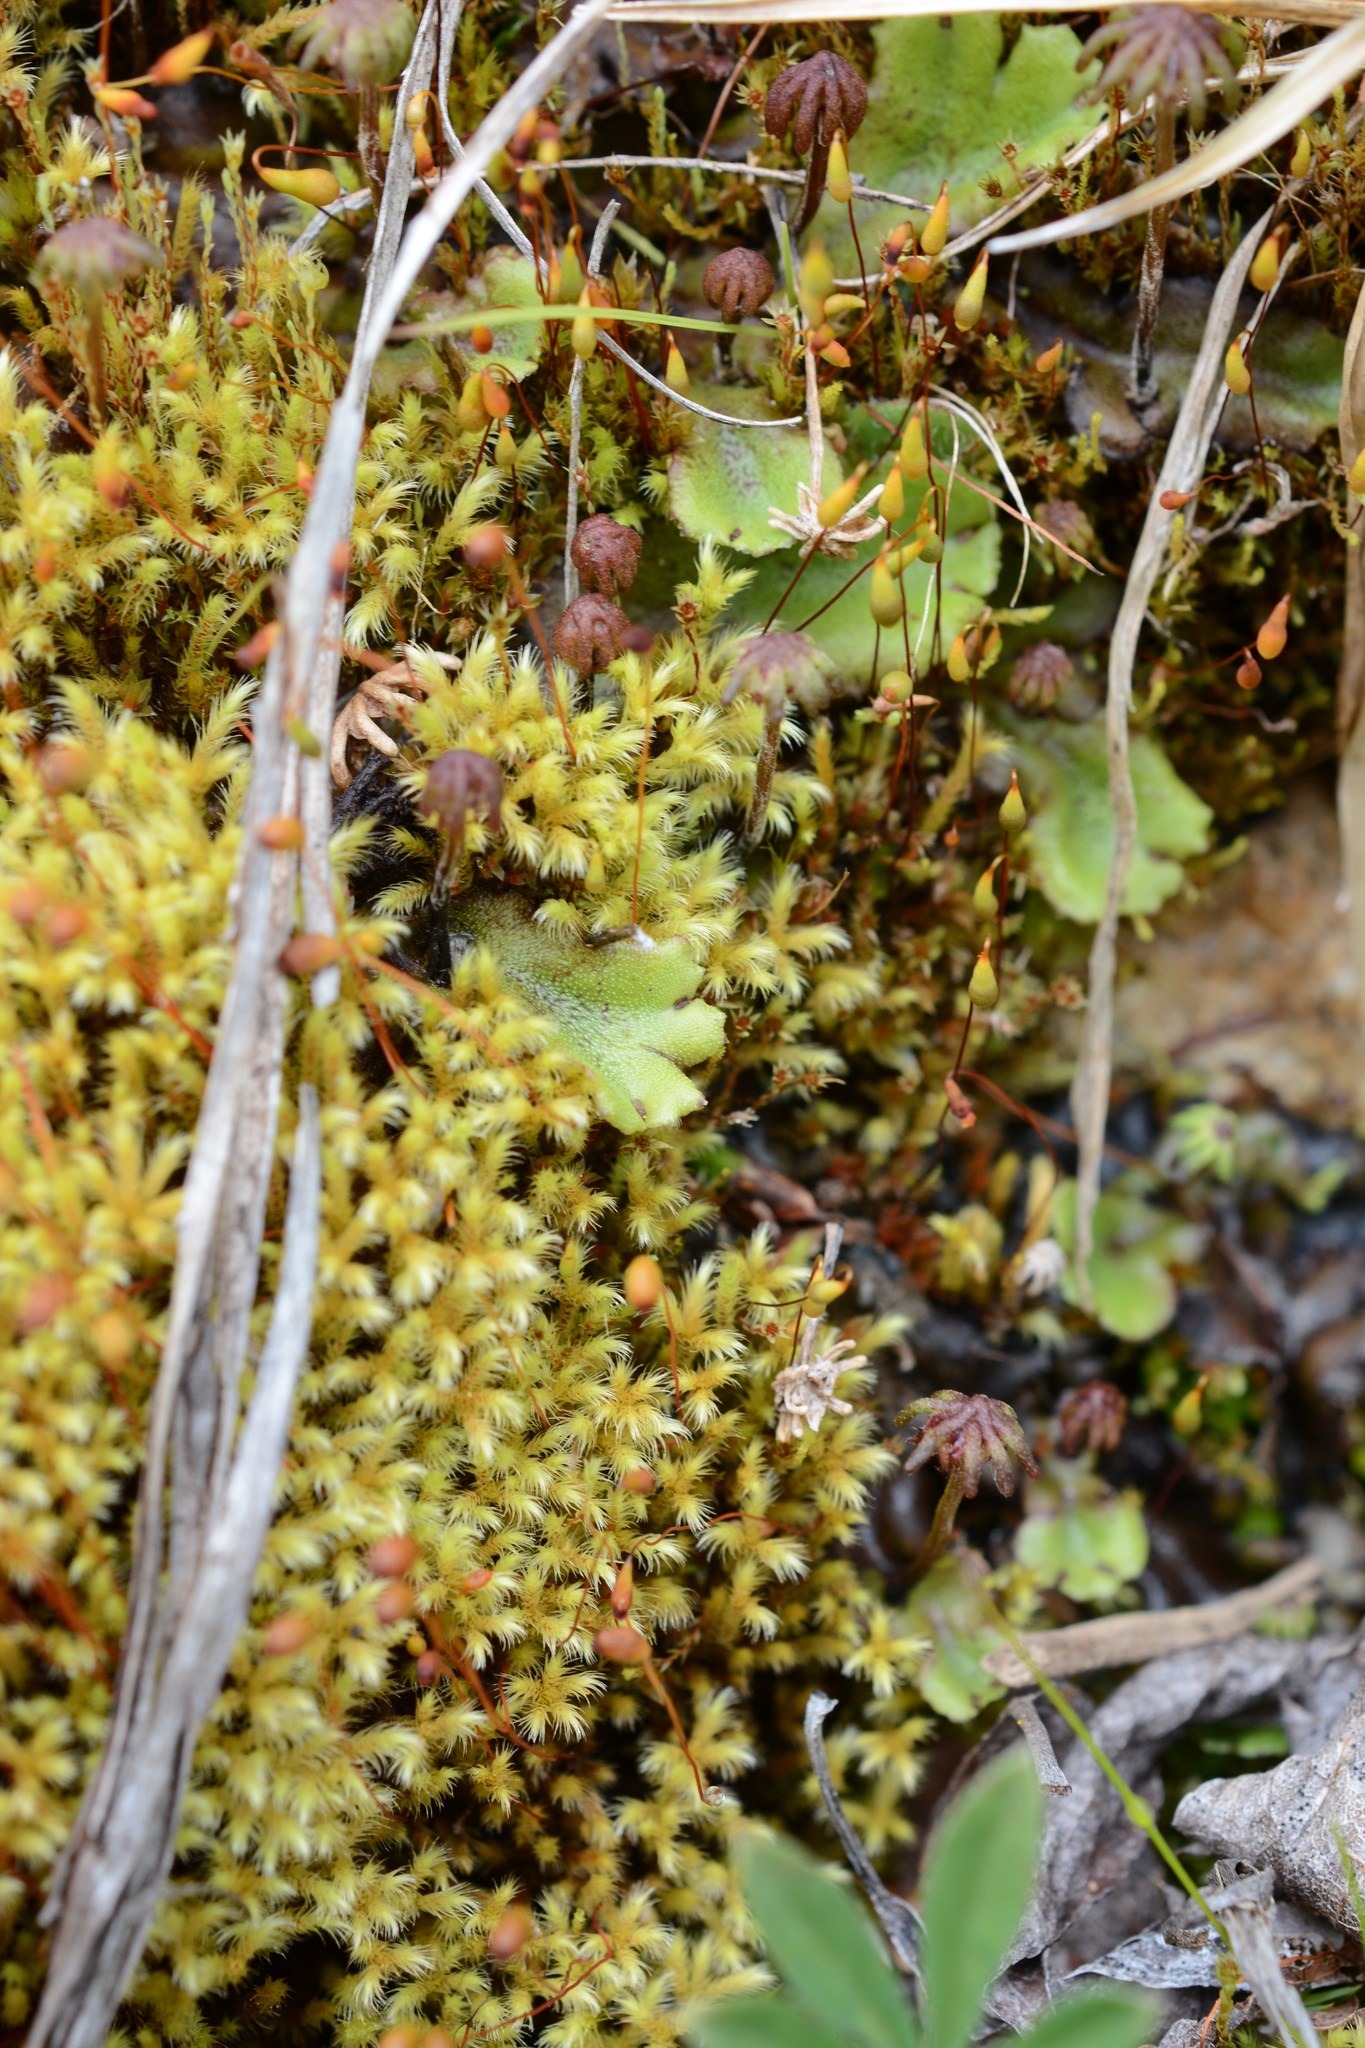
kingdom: Plantae
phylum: Marchantiophyta
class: Marchantiopsida
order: Marchantiales
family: Marchantiaceae
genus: Marchantia
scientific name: Marchantia polymorpha
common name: Common liverwort
